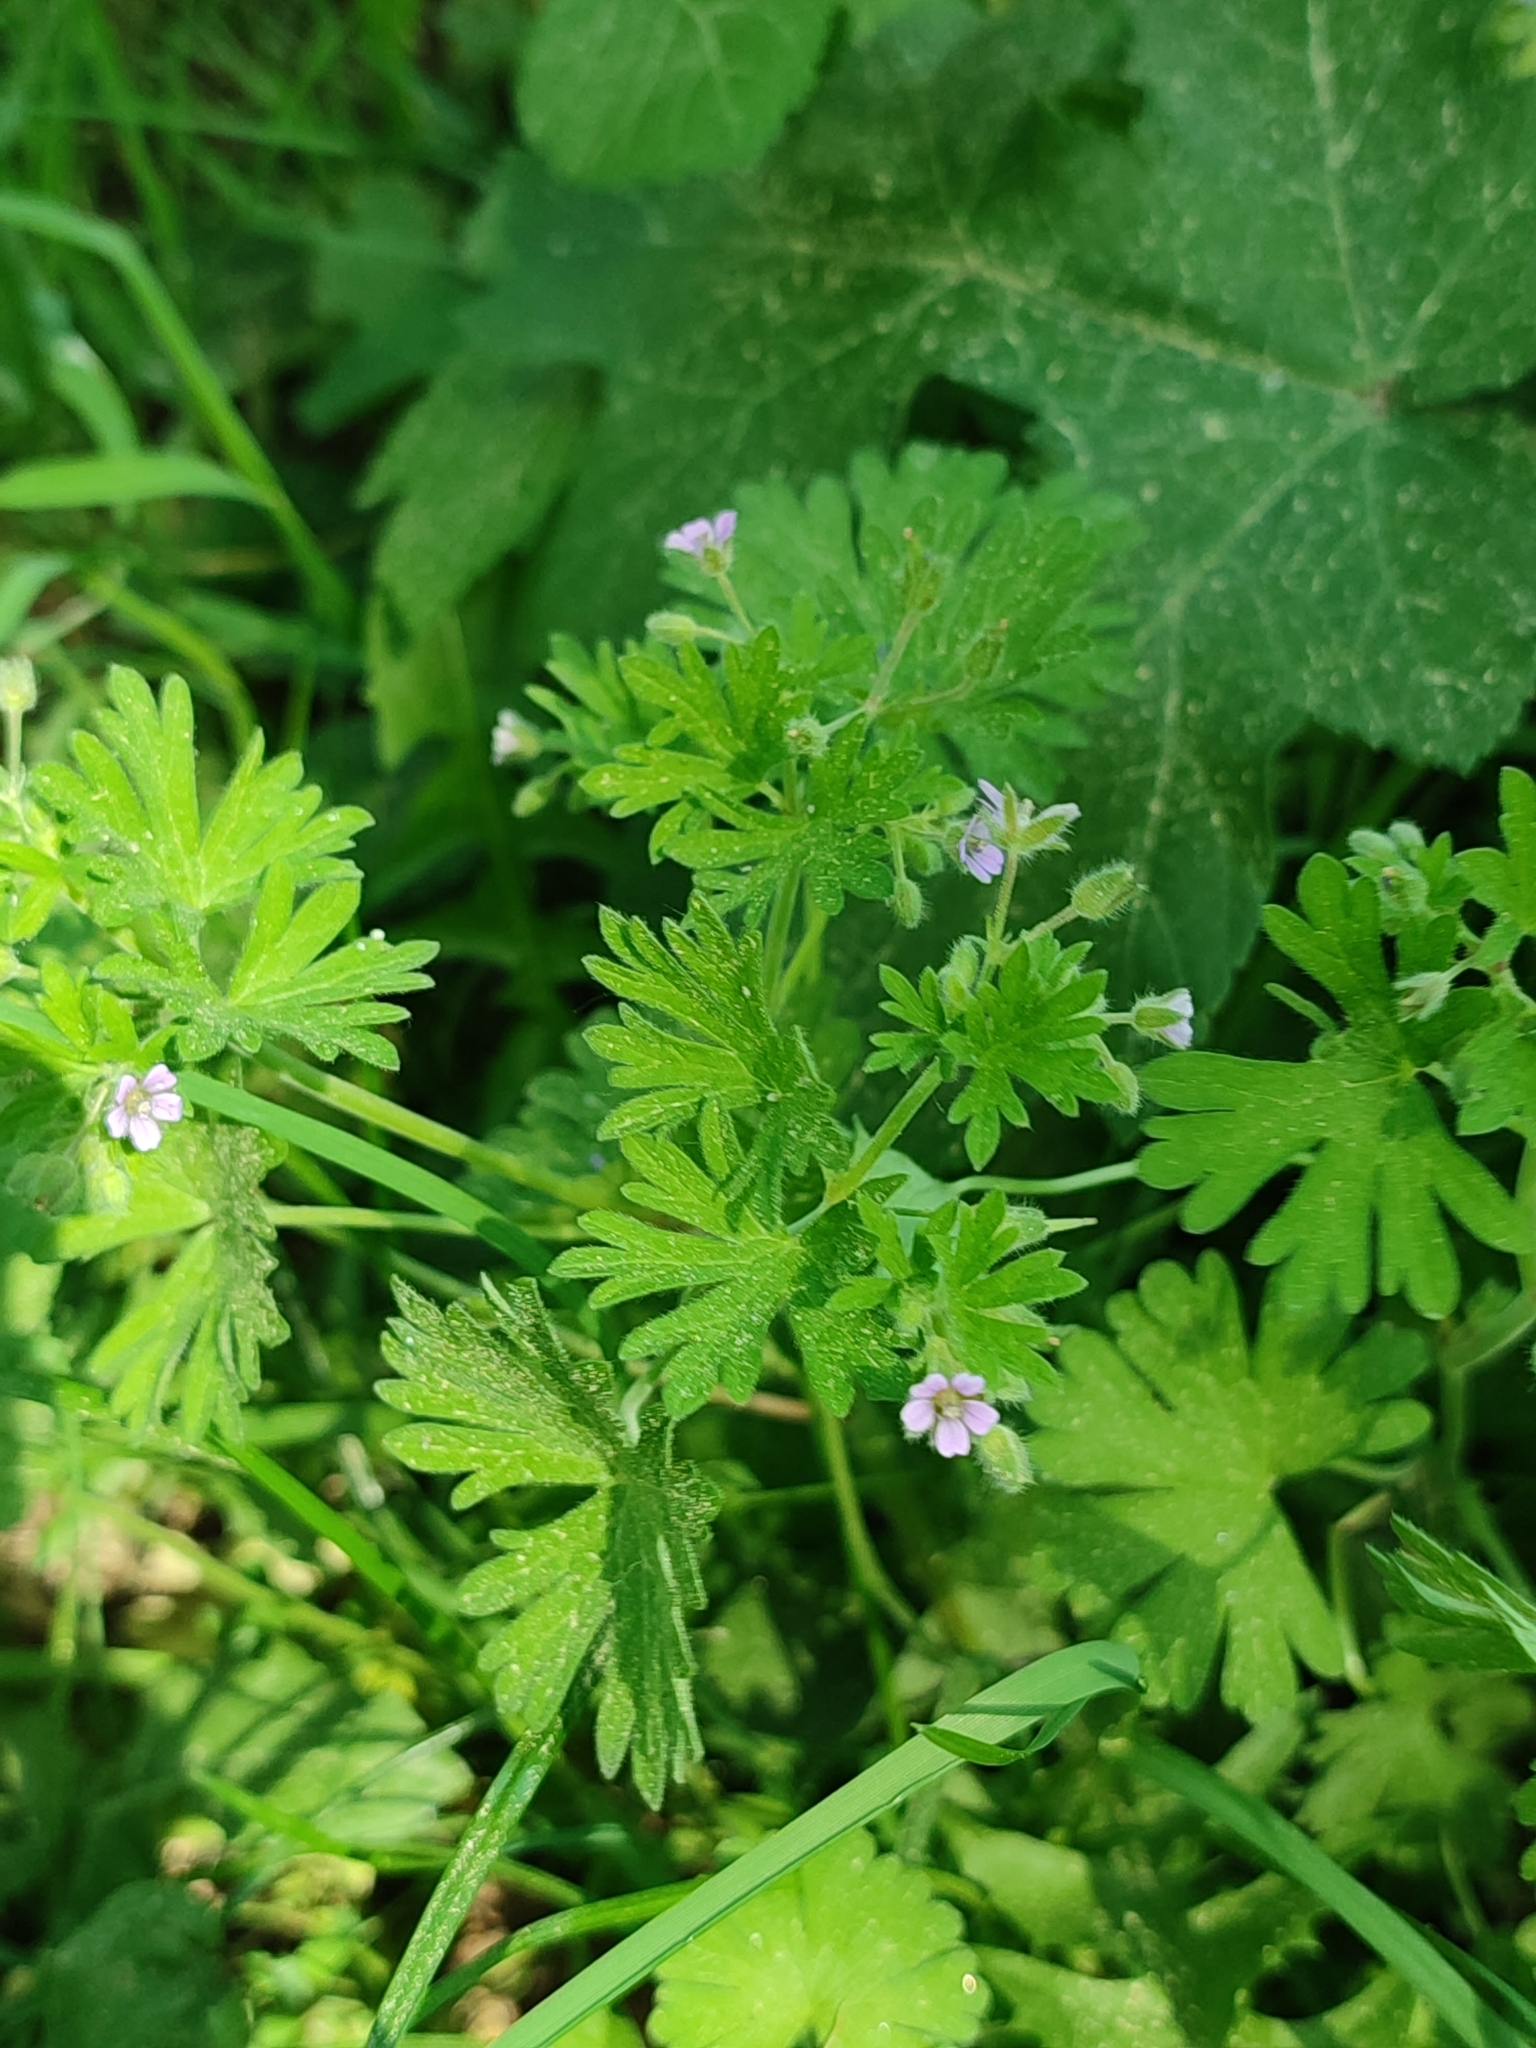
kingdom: Plantae
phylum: Tracheophyta
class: Magnoliopsida
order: Geraniales
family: Geraniaceae
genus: Geranium
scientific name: Geranium pusillum
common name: Small geranium
